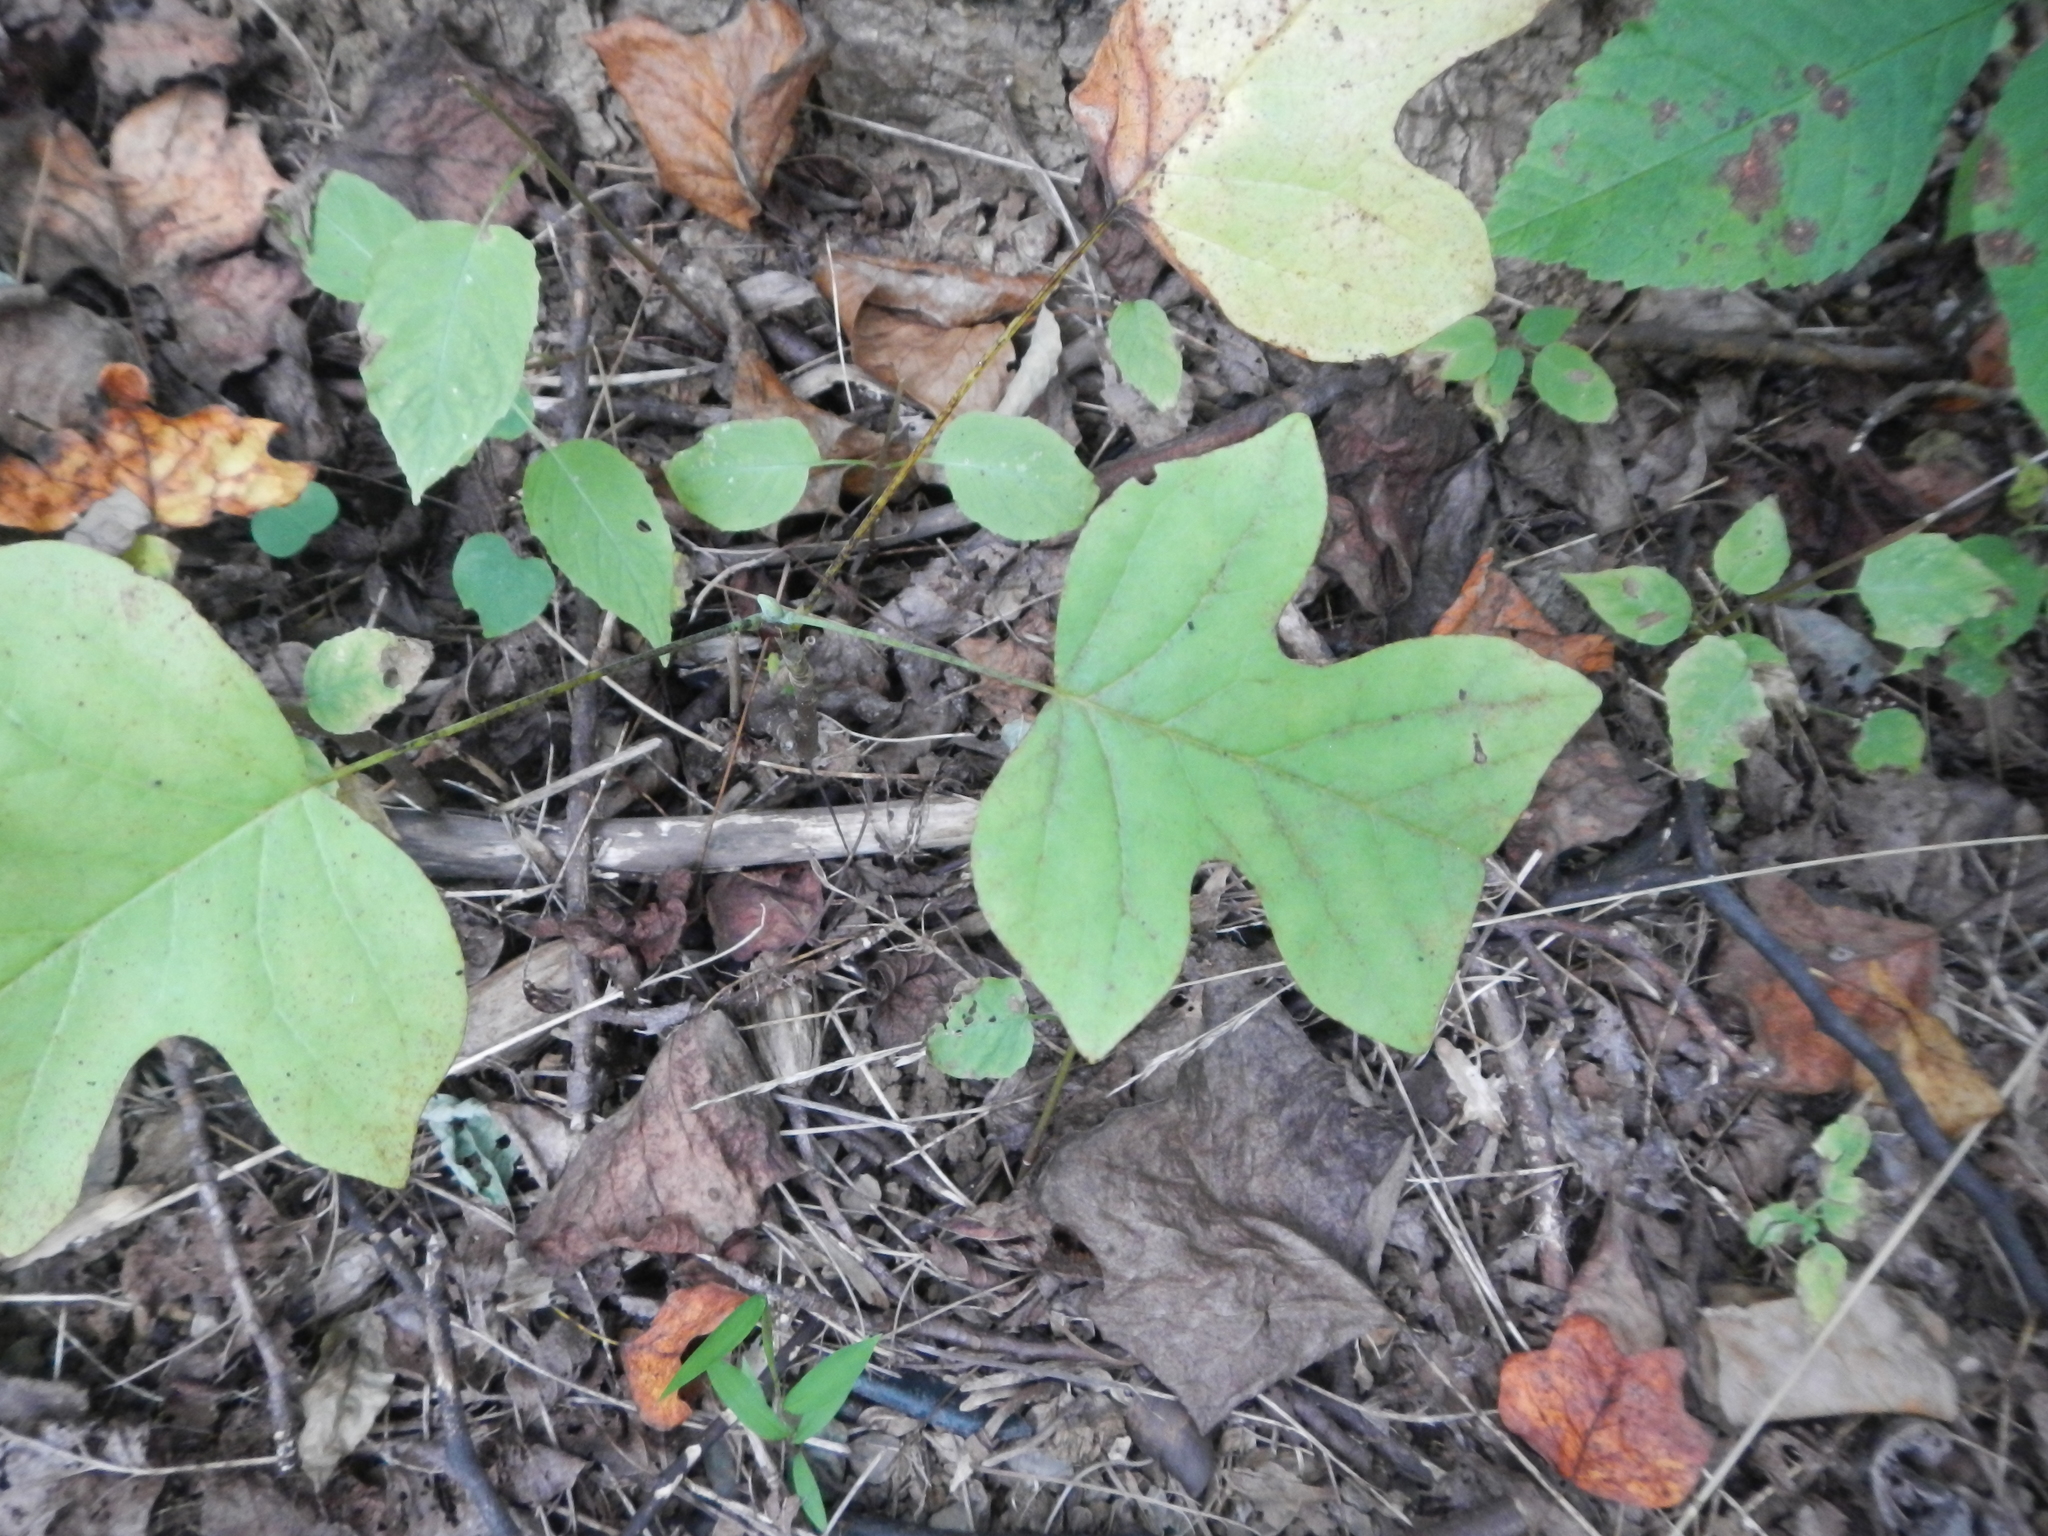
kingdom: Plantae
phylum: Tracheophyta
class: Magnoliopsida
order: Magnoliales
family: Magnoliaceae
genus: Liriodendron
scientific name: Liriodendron tulipifera
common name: Tulip tree
